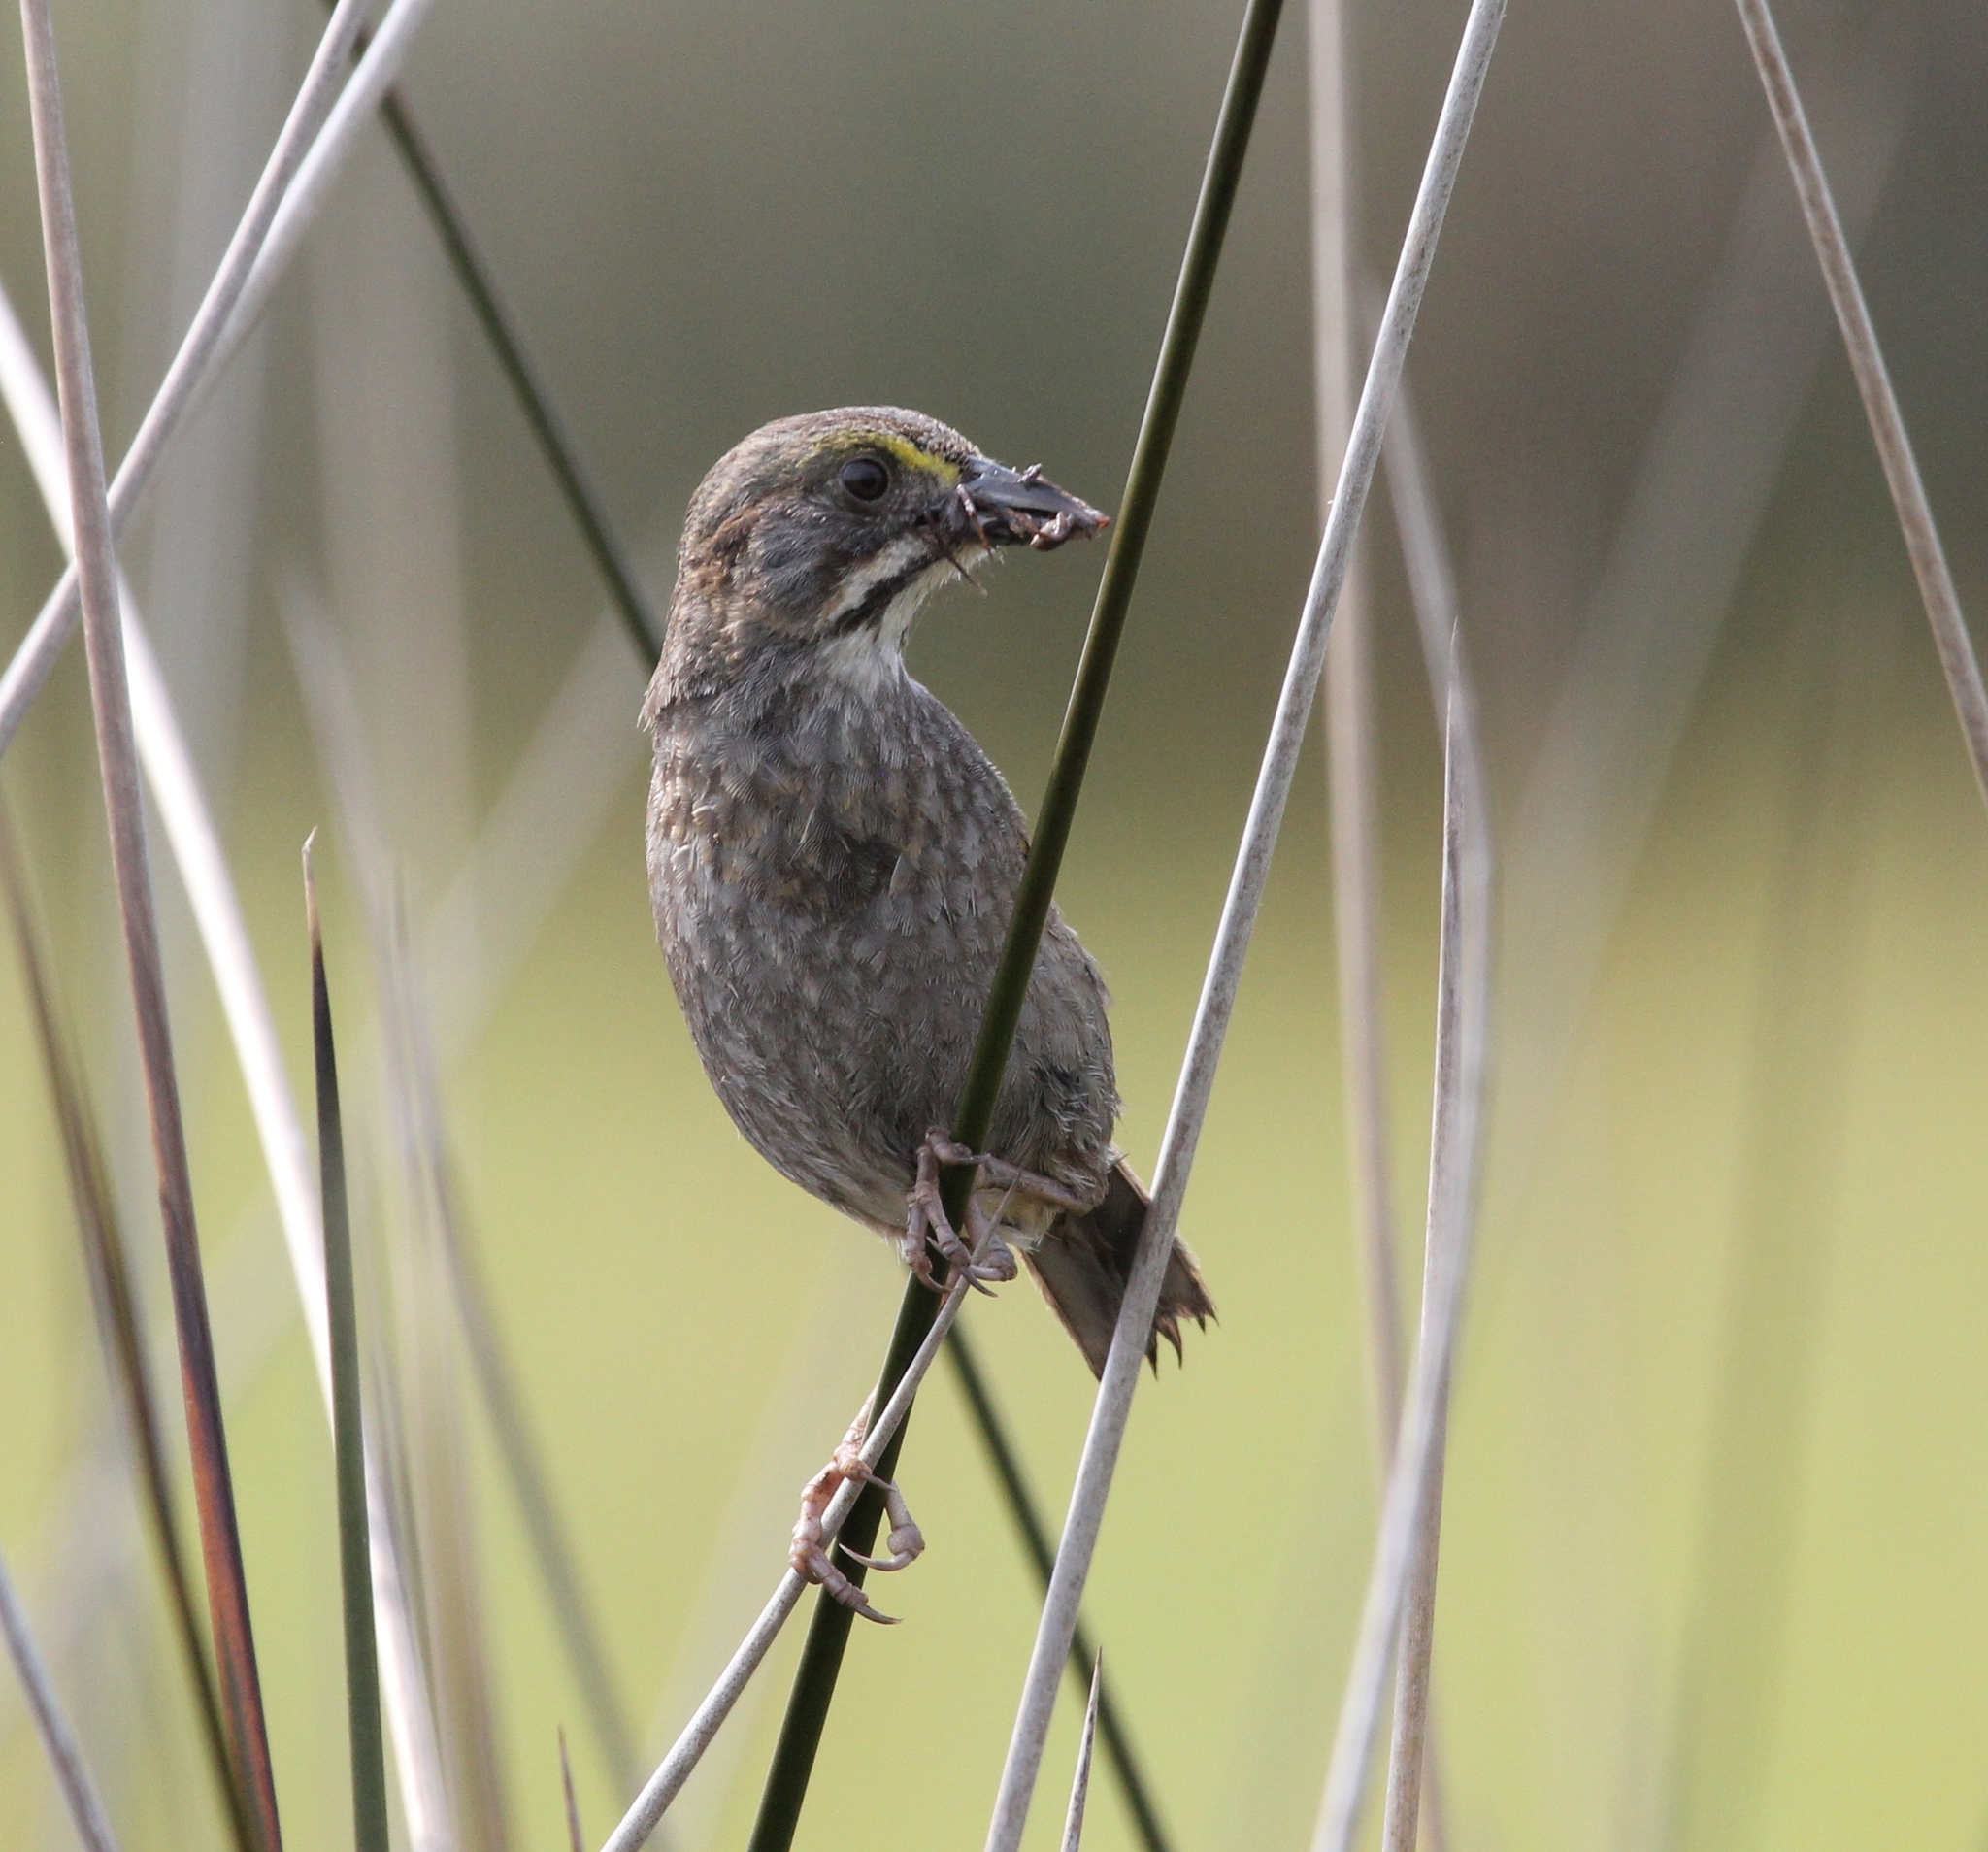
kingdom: Animalia
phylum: Chordata
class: Aves
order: Passeriformes
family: Passerellidae
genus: Ammospiza
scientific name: Ammospiza maritima
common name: Seaside sparrow
